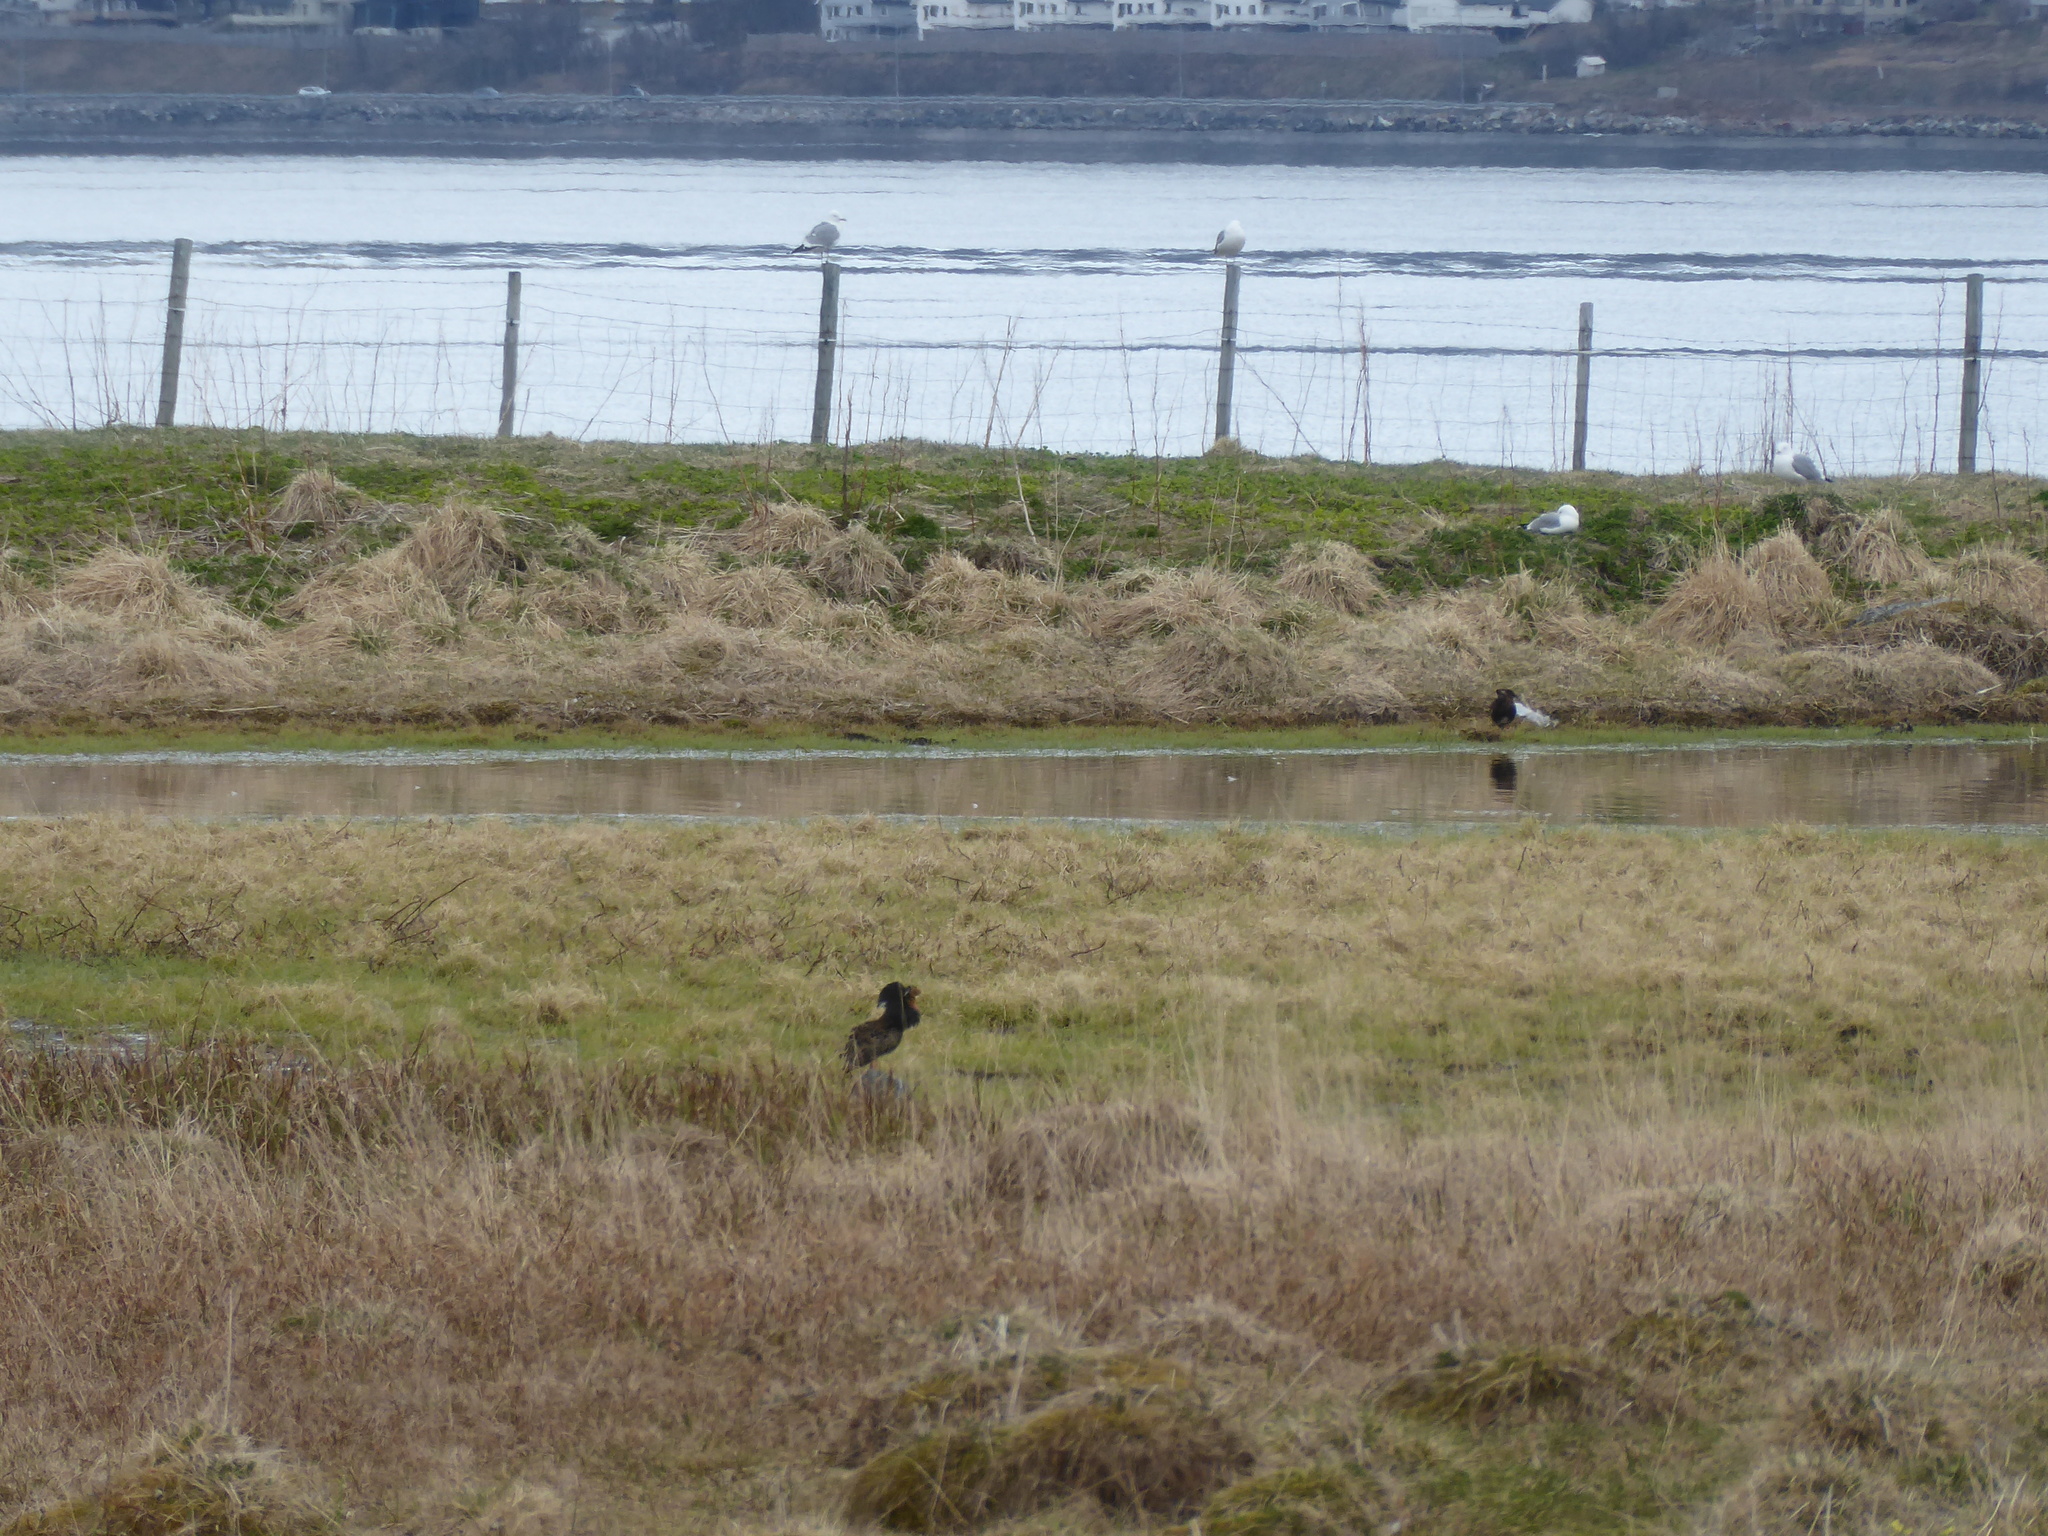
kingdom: Animalia
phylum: Chordata
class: Aves
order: Charadriiformes
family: Scolopacidae
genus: Calidris
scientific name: Calidris pugnax
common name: Ruff
